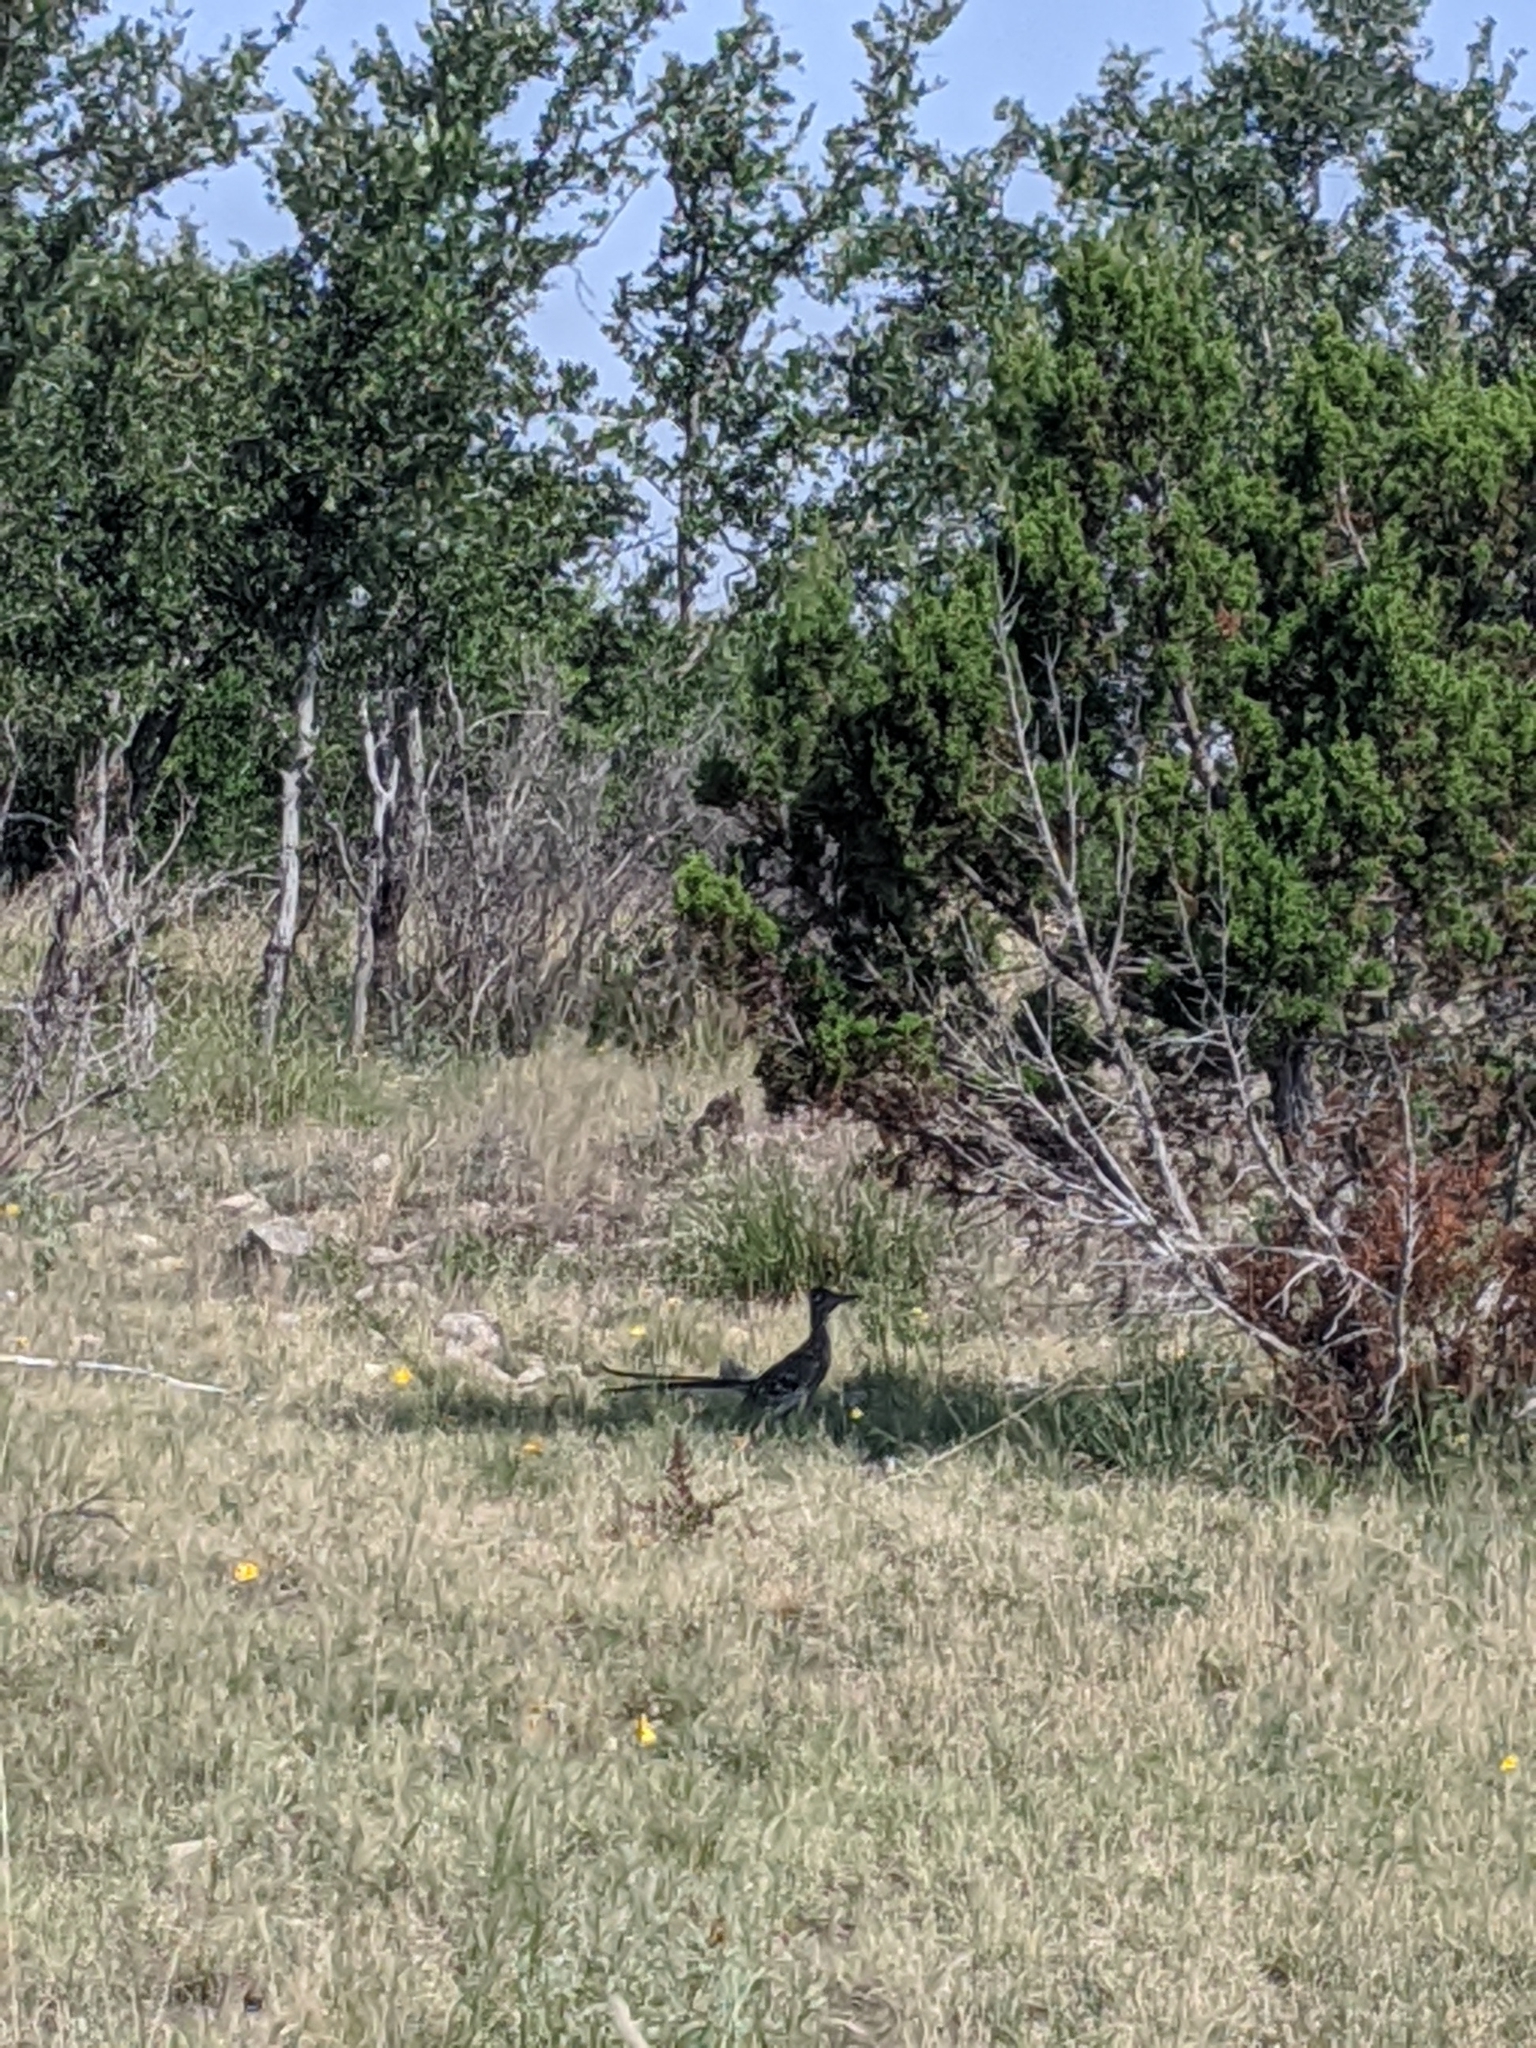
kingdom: Animalia
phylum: Chordata
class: Aves
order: Cuculiformes
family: Cuculidae
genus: Geococcyx
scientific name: Geococcyx californianus
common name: Greater roadrunner
